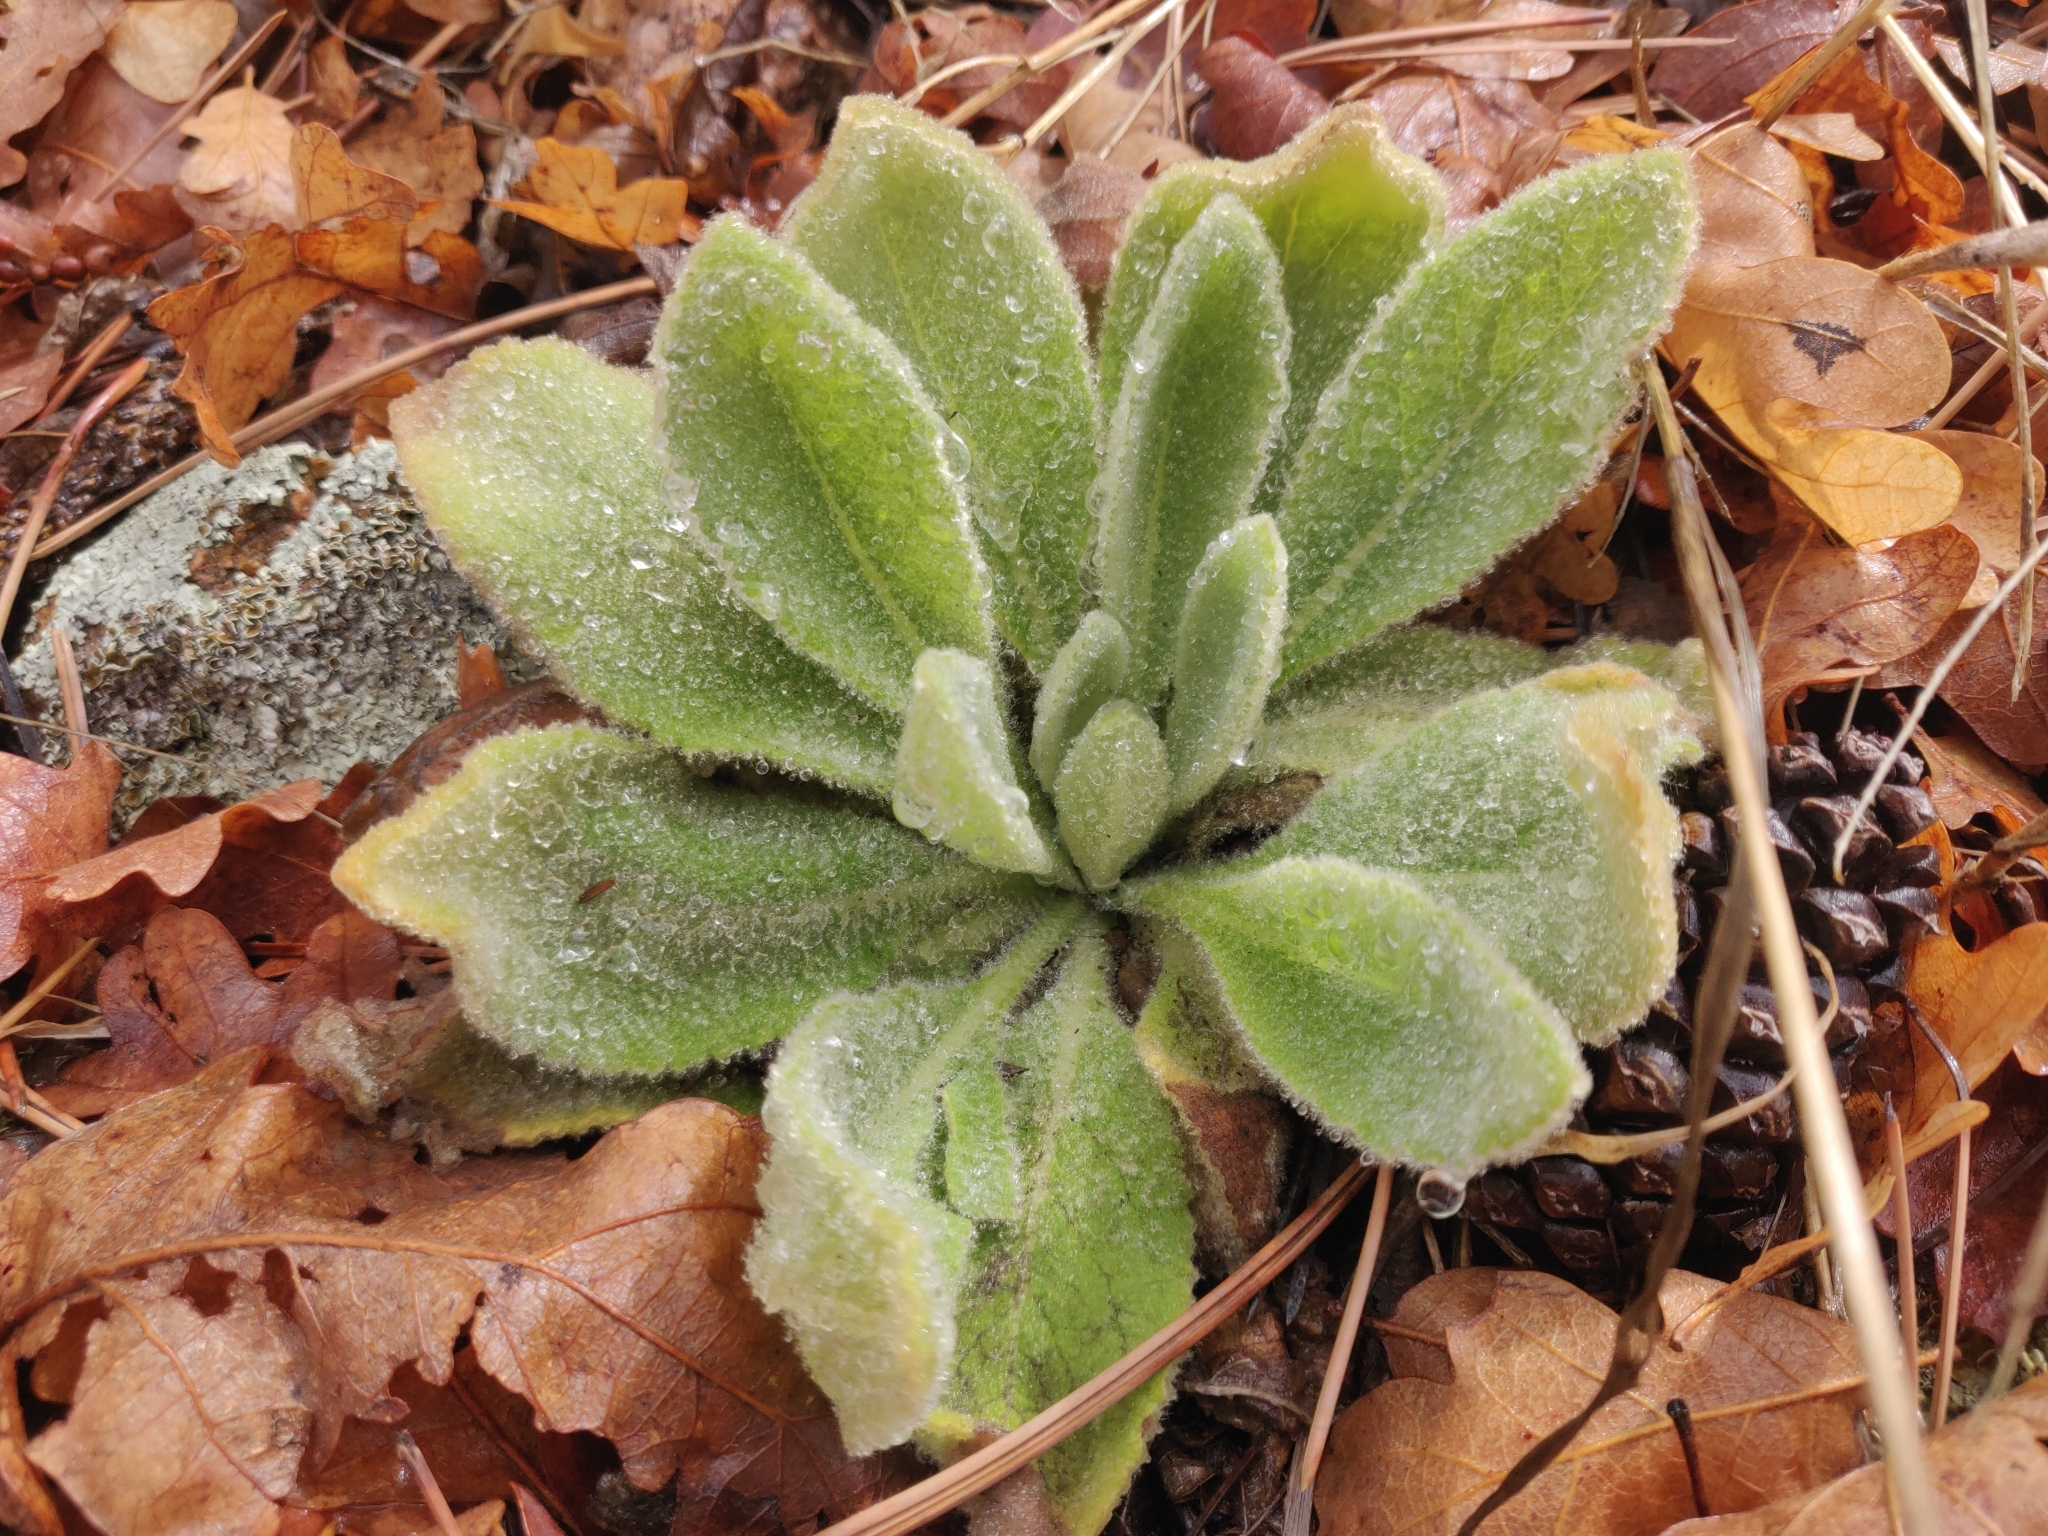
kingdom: Plantae
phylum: Tracheophyta
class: Magnoliopsida
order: Lamiales
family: Scrophulariaceae
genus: Verbascum
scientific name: Verbascum thapsus
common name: Common mullein
